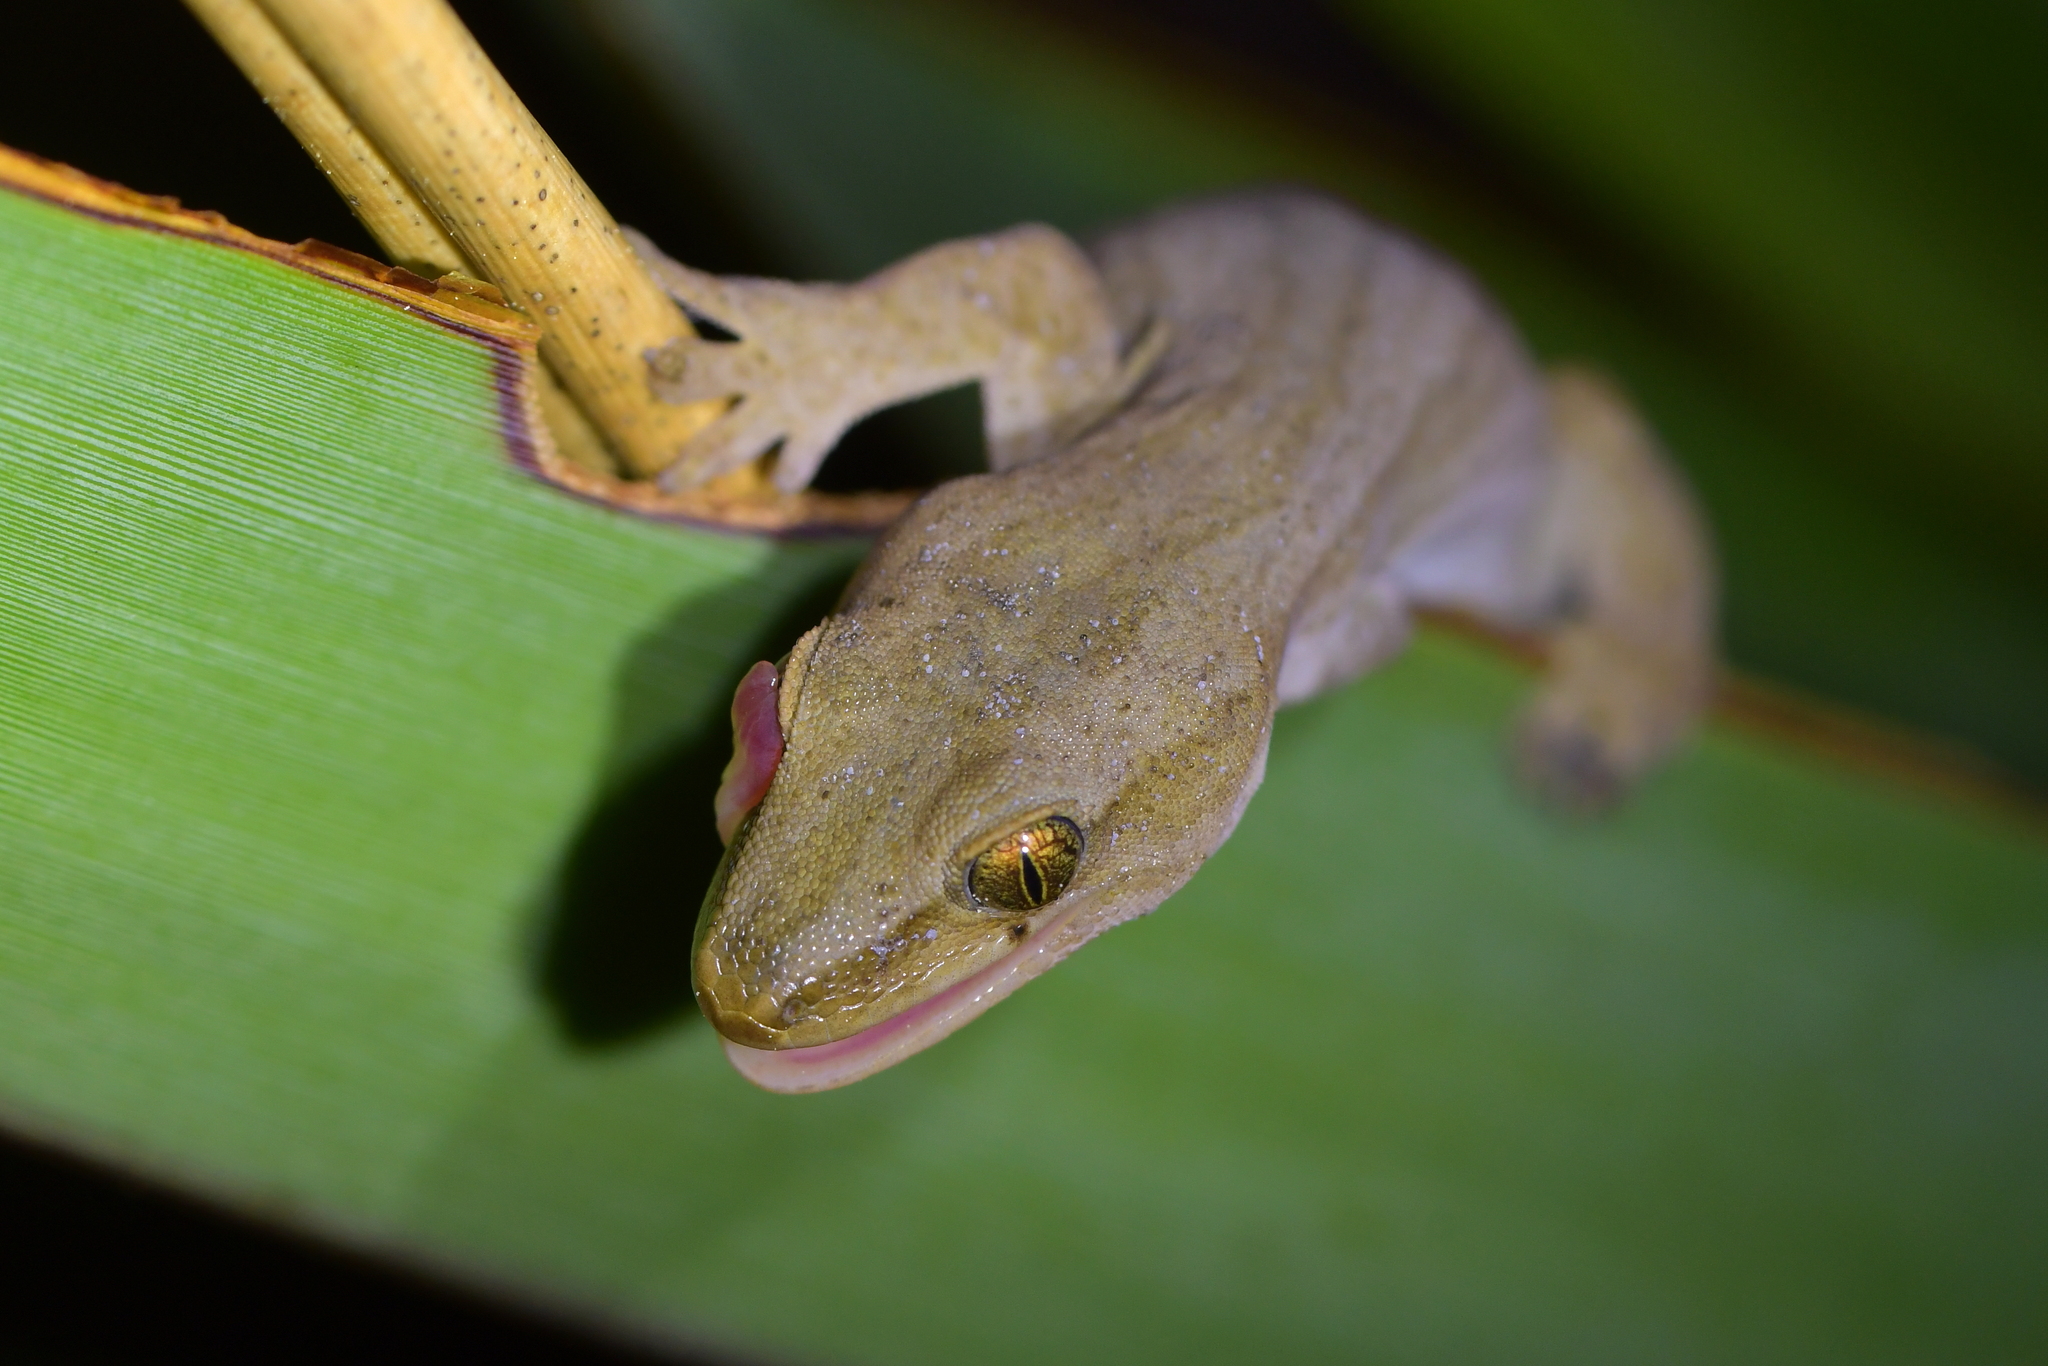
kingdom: Animalia
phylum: Chordata
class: Squamata
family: Diplodactylidae
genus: Woodworthia
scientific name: Woodworthia chrysosiretica
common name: Gold-striped gecko
